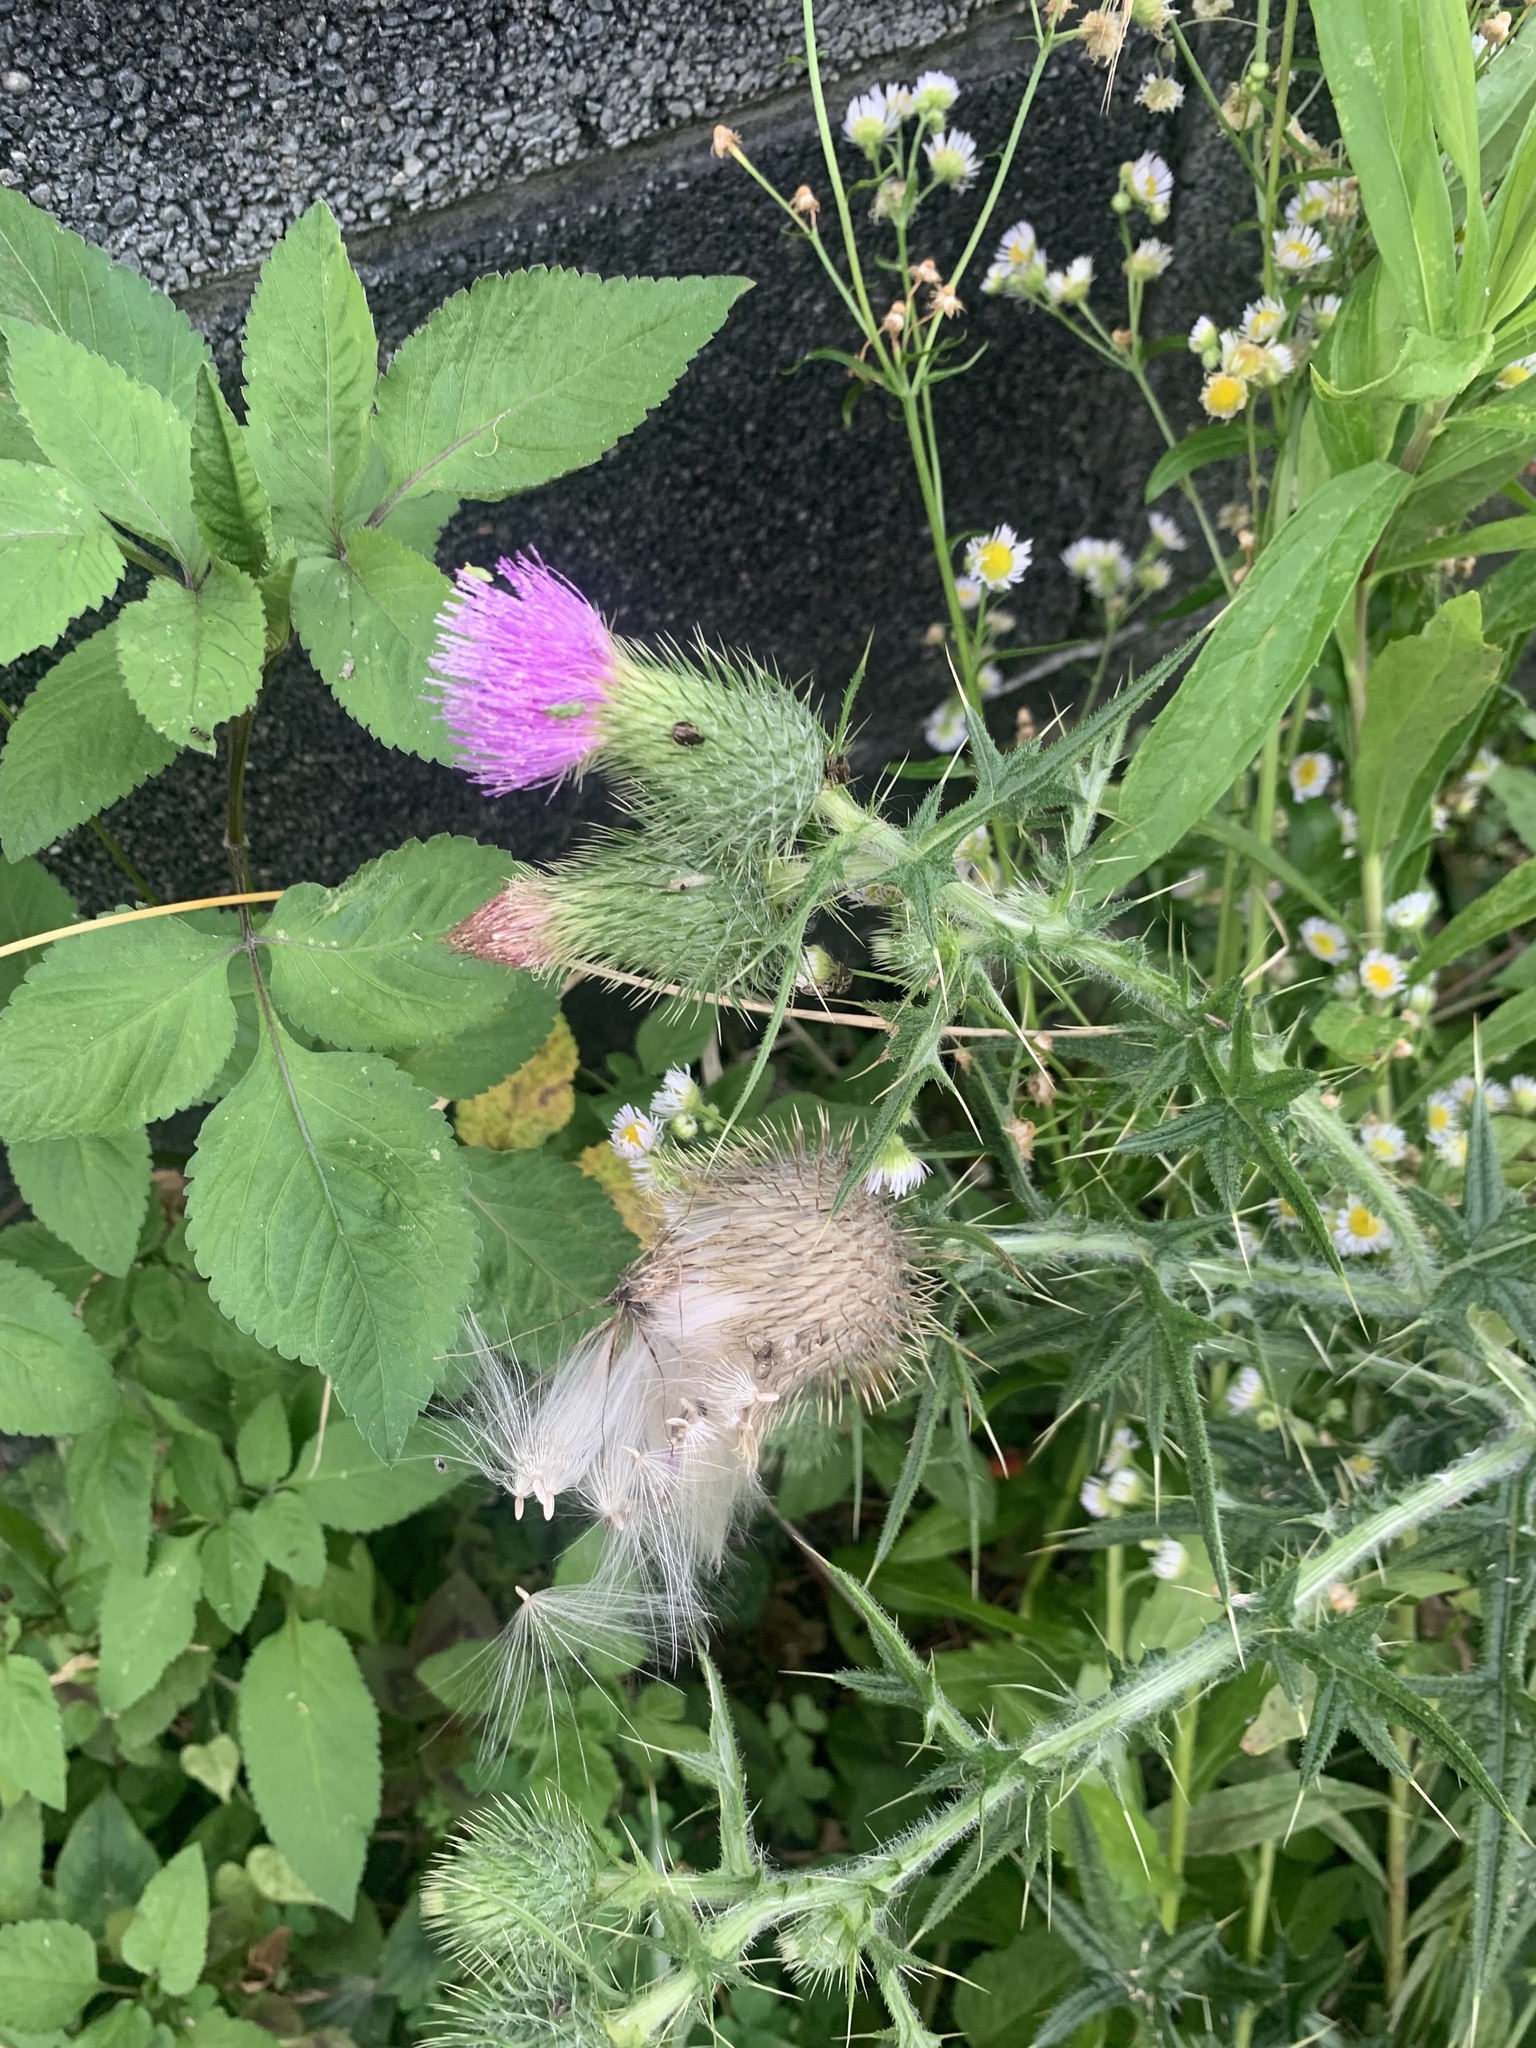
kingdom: Plantae
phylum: Tracheophyta
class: Magnoliopsida
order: Asterales
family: Asteraceae
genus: Cirsium
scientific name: Cirsium vulgare
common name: Bull thistle
